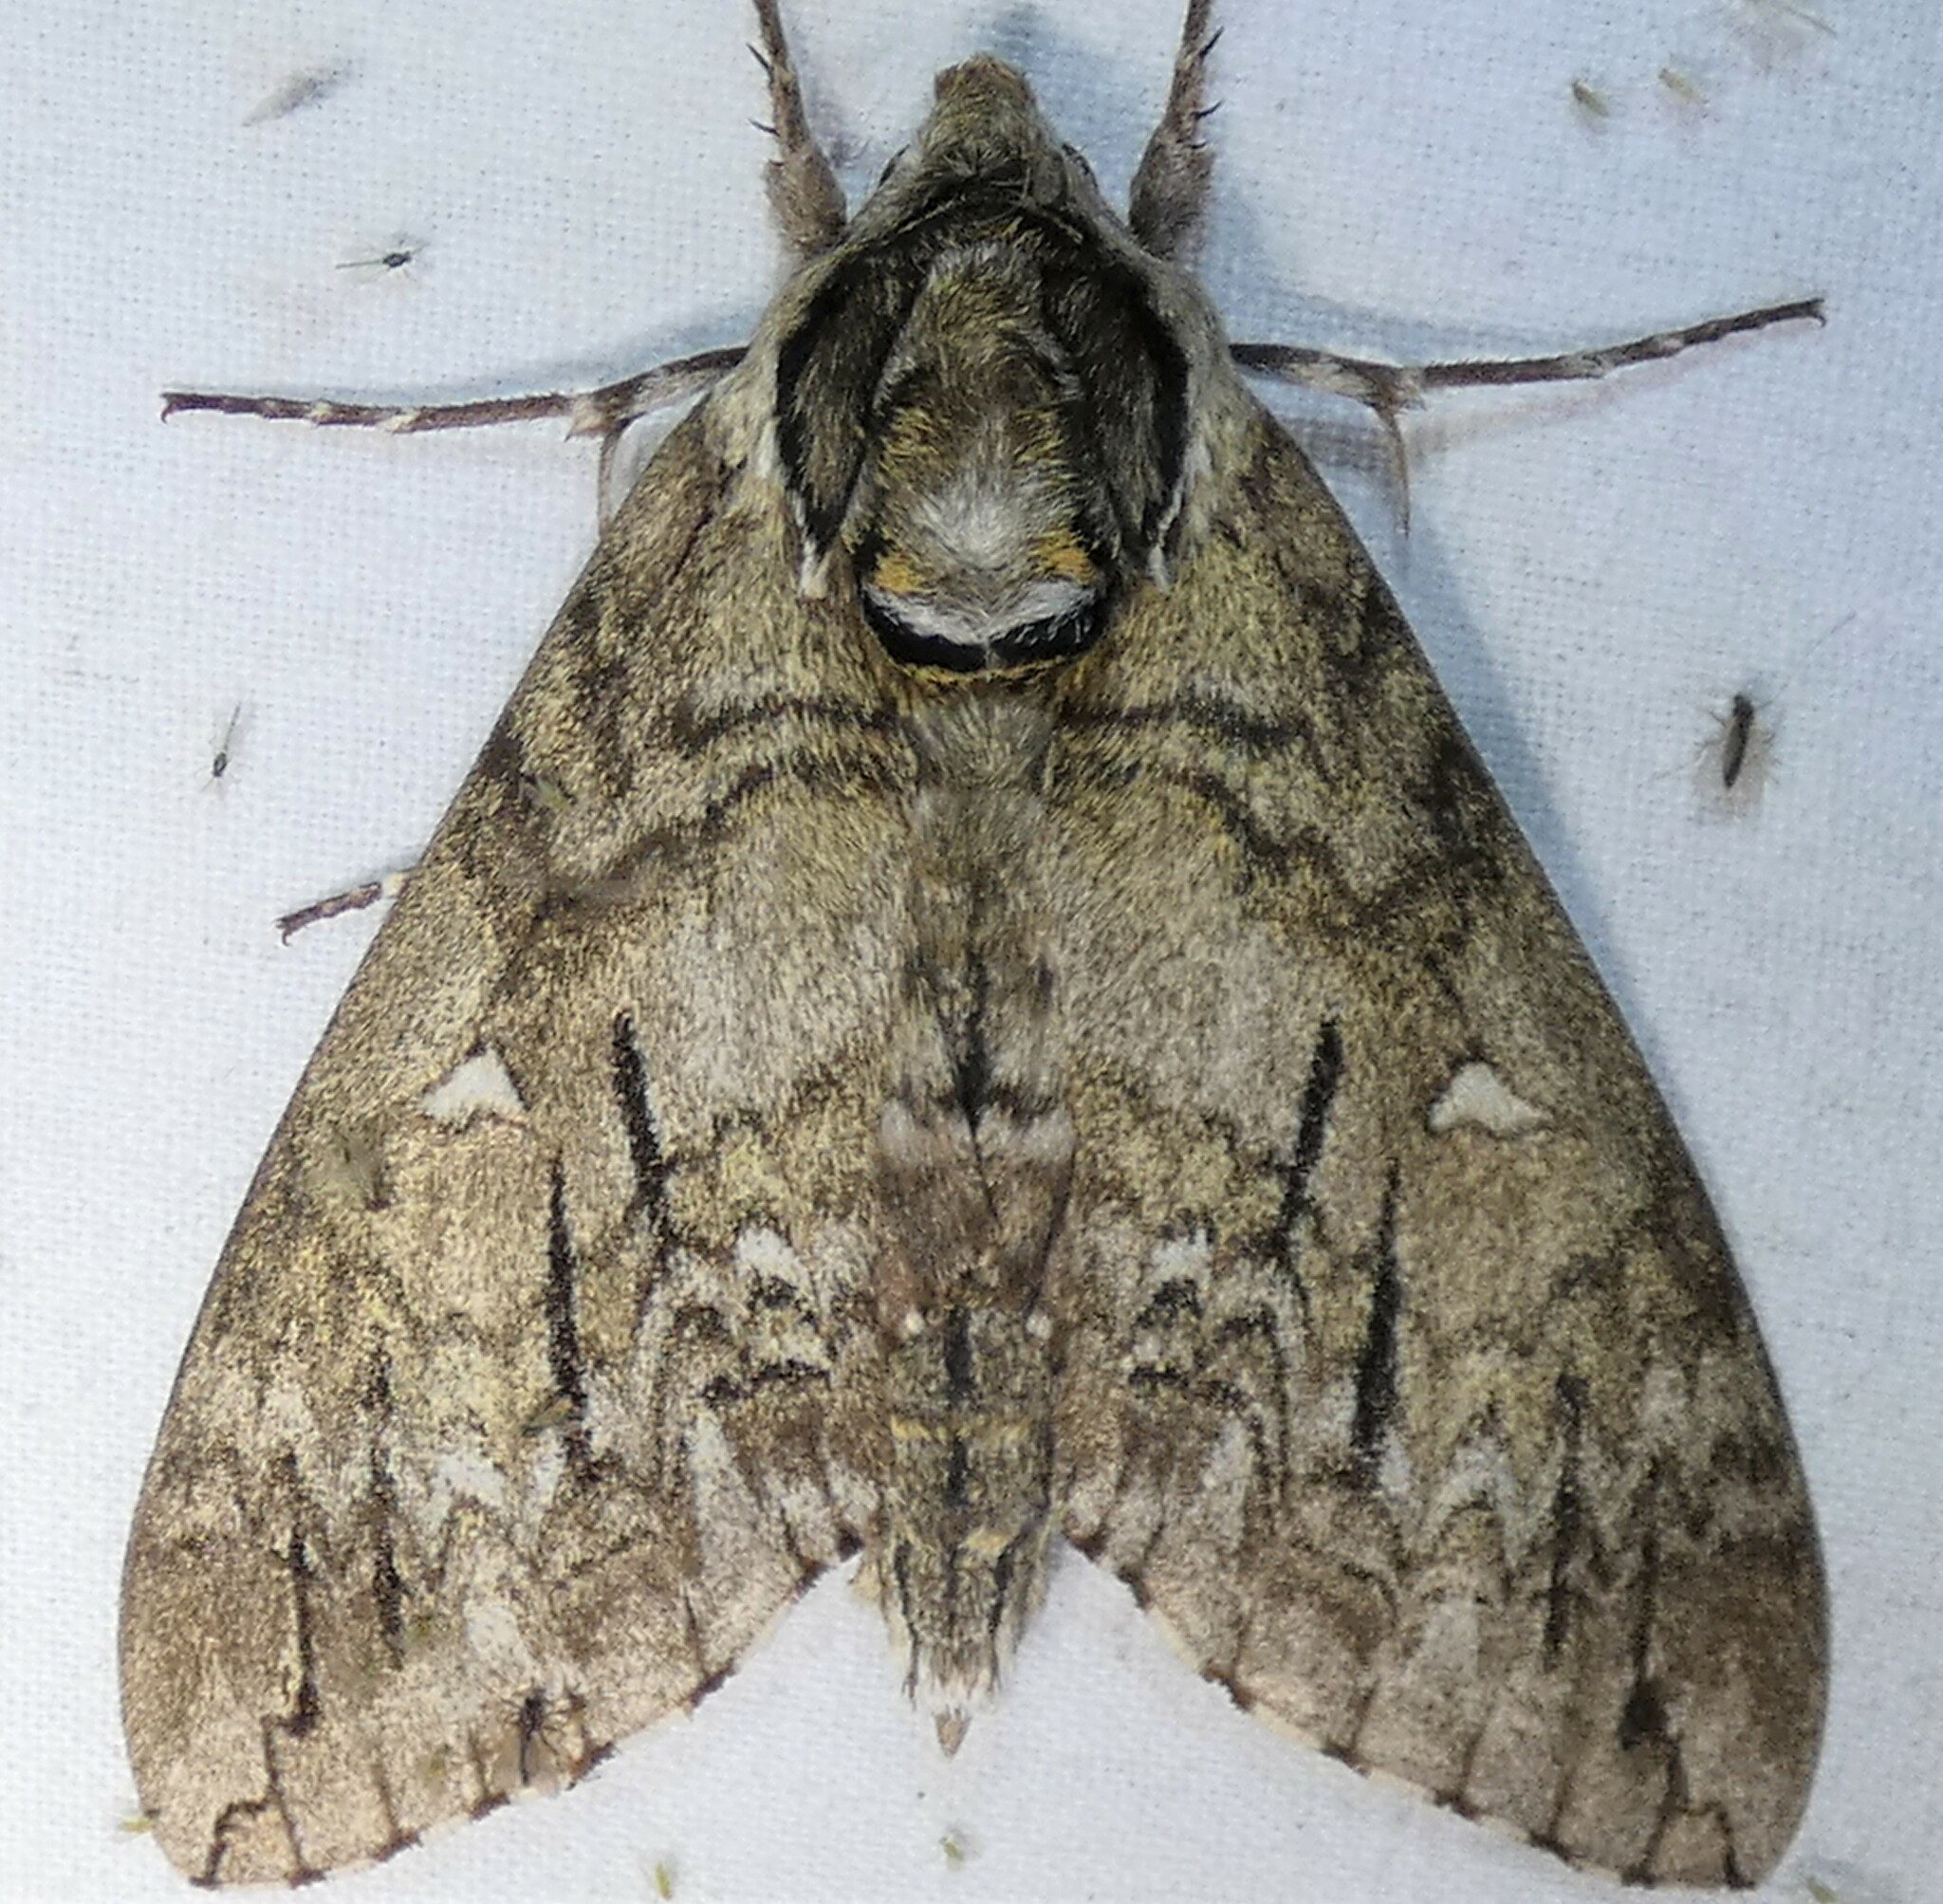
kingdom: Animalia
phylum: Arthropoda
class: Insecta
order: Lepidoptera
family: Sphingidae
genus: Ceratomia
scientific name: Ceratomia undulosa
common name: Waved sphinx
